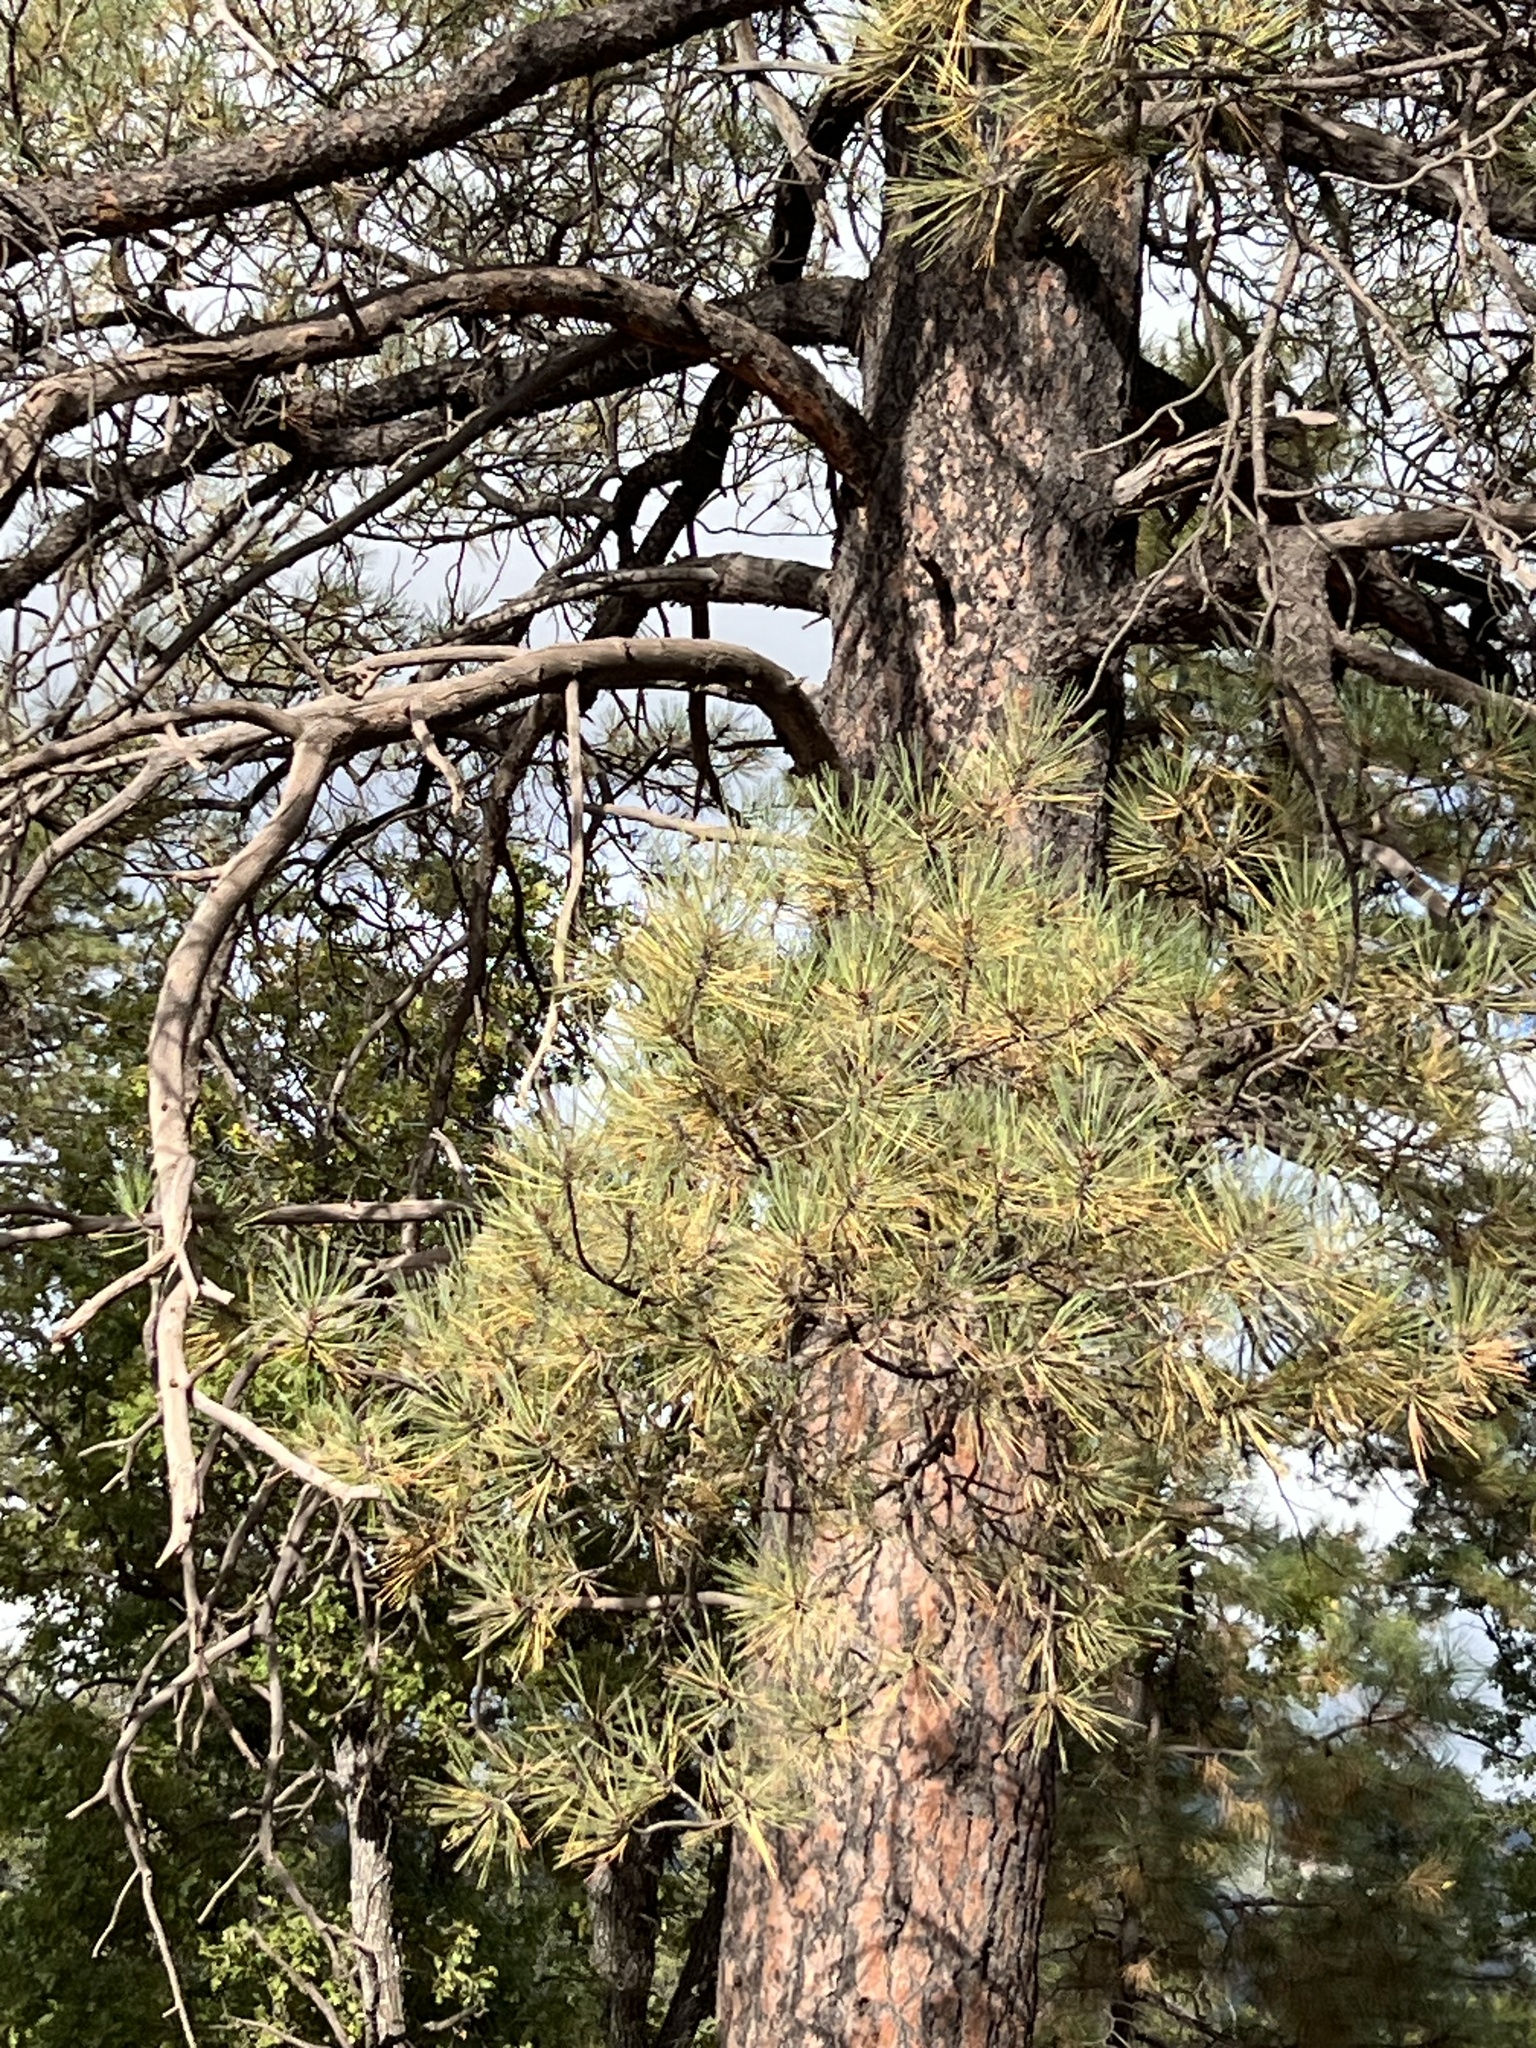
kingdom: Plantae
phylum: Tracheophyta
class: Pinopsida
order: Pinales
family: Pinaceae
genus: Pinus
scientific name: Pinus ponderosa
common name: Western yellow-pine
